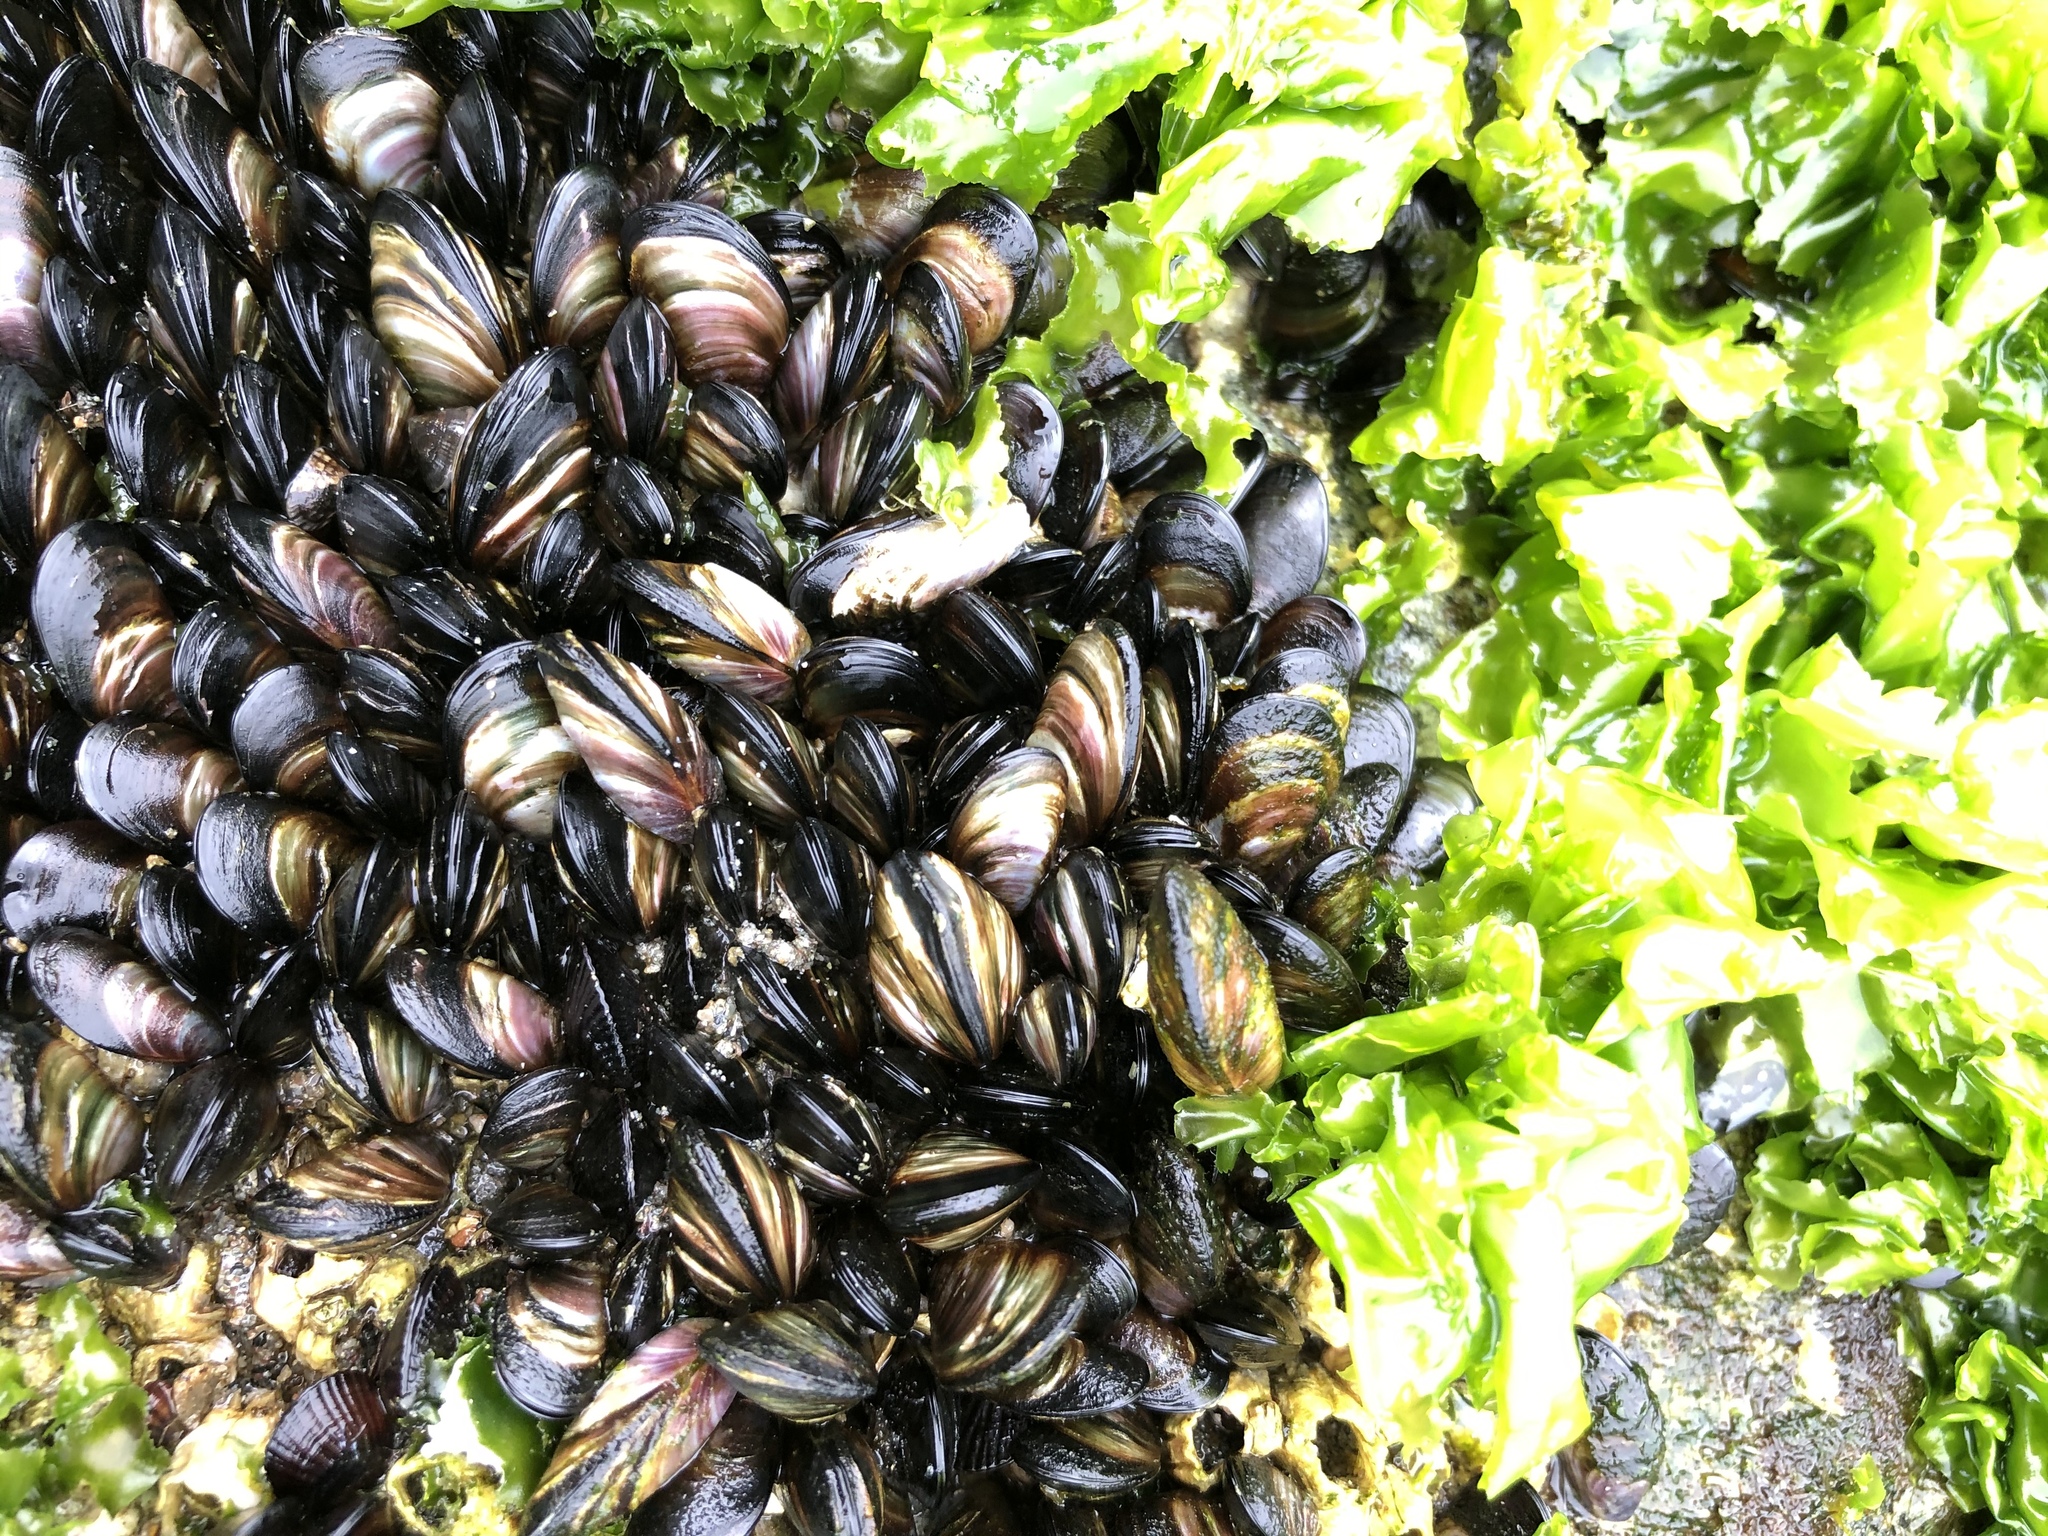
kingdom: Animalia
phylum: Mollusca
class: Bivalvia
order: Mytilida
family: Mytilidae
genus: Semimytilus
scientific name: Semimytilus patagonicus
